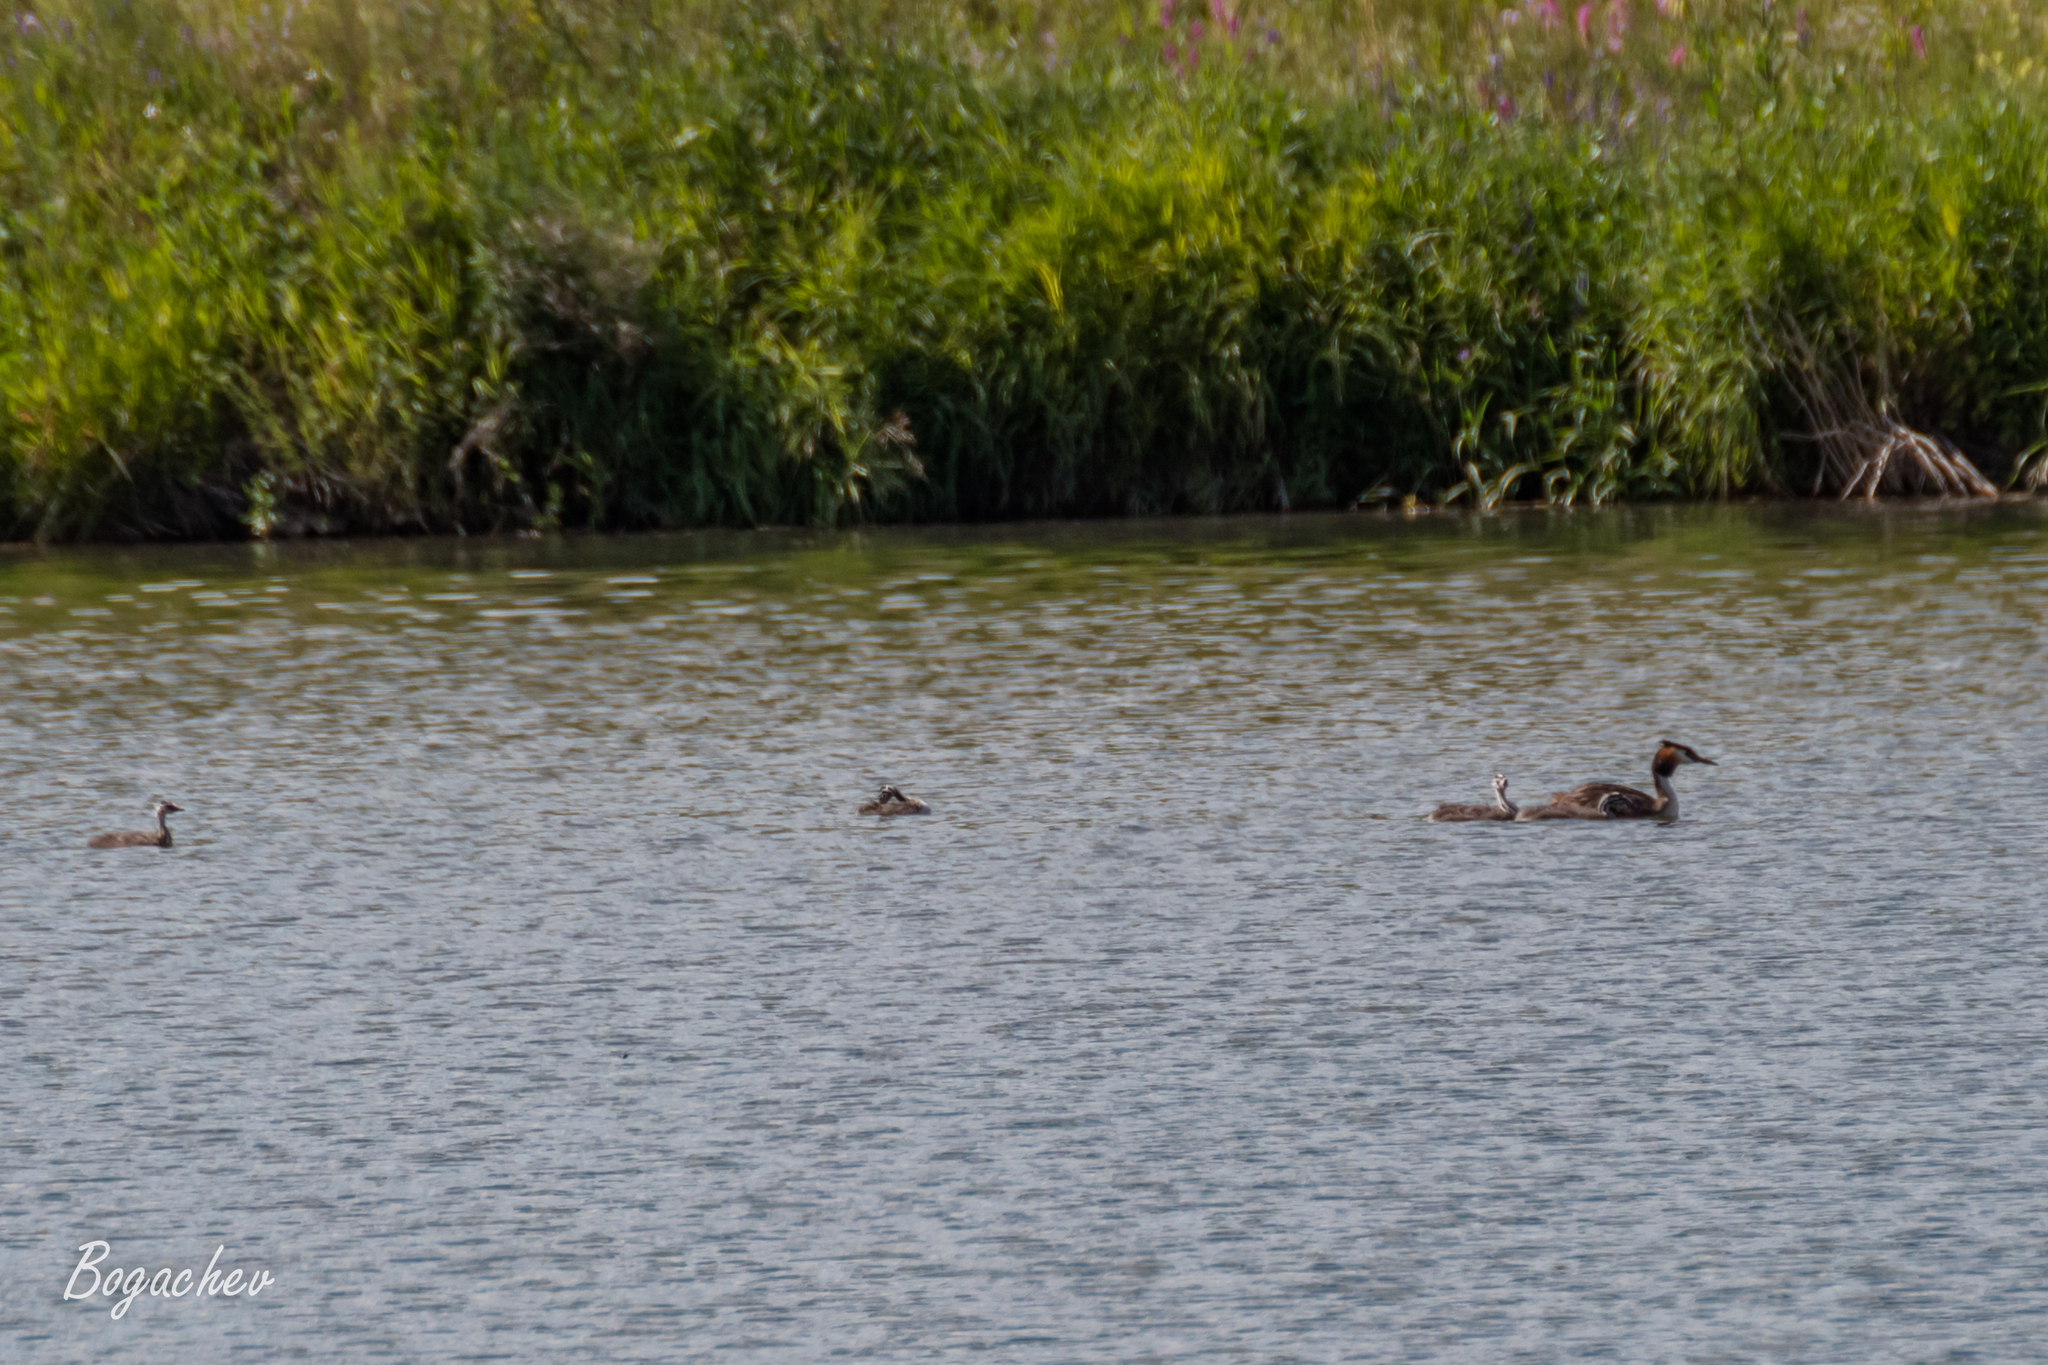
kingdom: Animalia
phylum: Chordata
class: Aves
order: Podicipediformes
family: Podicipedidae
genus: Podiceps
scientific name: Podiceps cristatus
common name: Great crested grebe
